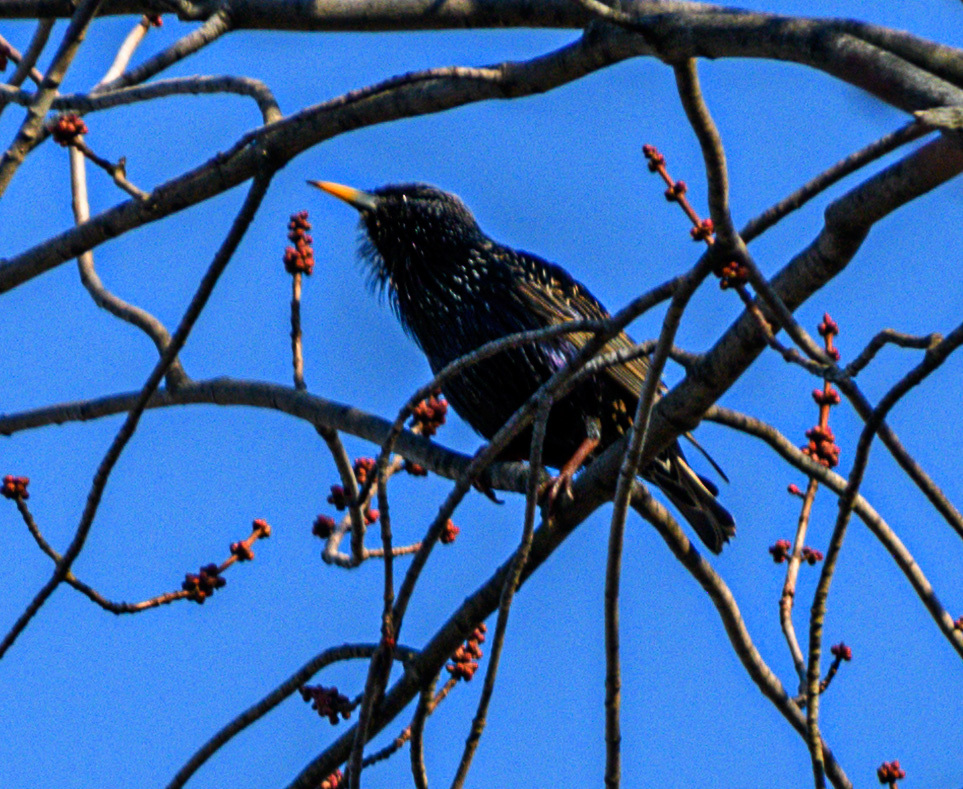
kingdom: Animalia
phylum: Chordata
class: Aves
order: Passeriformes
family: Sturnidae
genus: Sturnus
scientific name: Sturnus vulgaris
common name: Common starling
